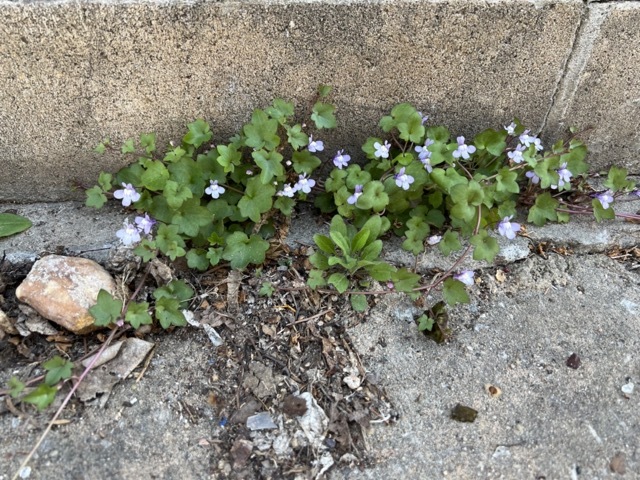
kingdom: Plantae
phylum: Tracheophyta
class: Magnoliopsida
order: Lamiales
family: Plantaginaceae
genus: Cymbalaria
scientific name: Cymbalaria muralis
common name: Ivy-leaved toadflax
